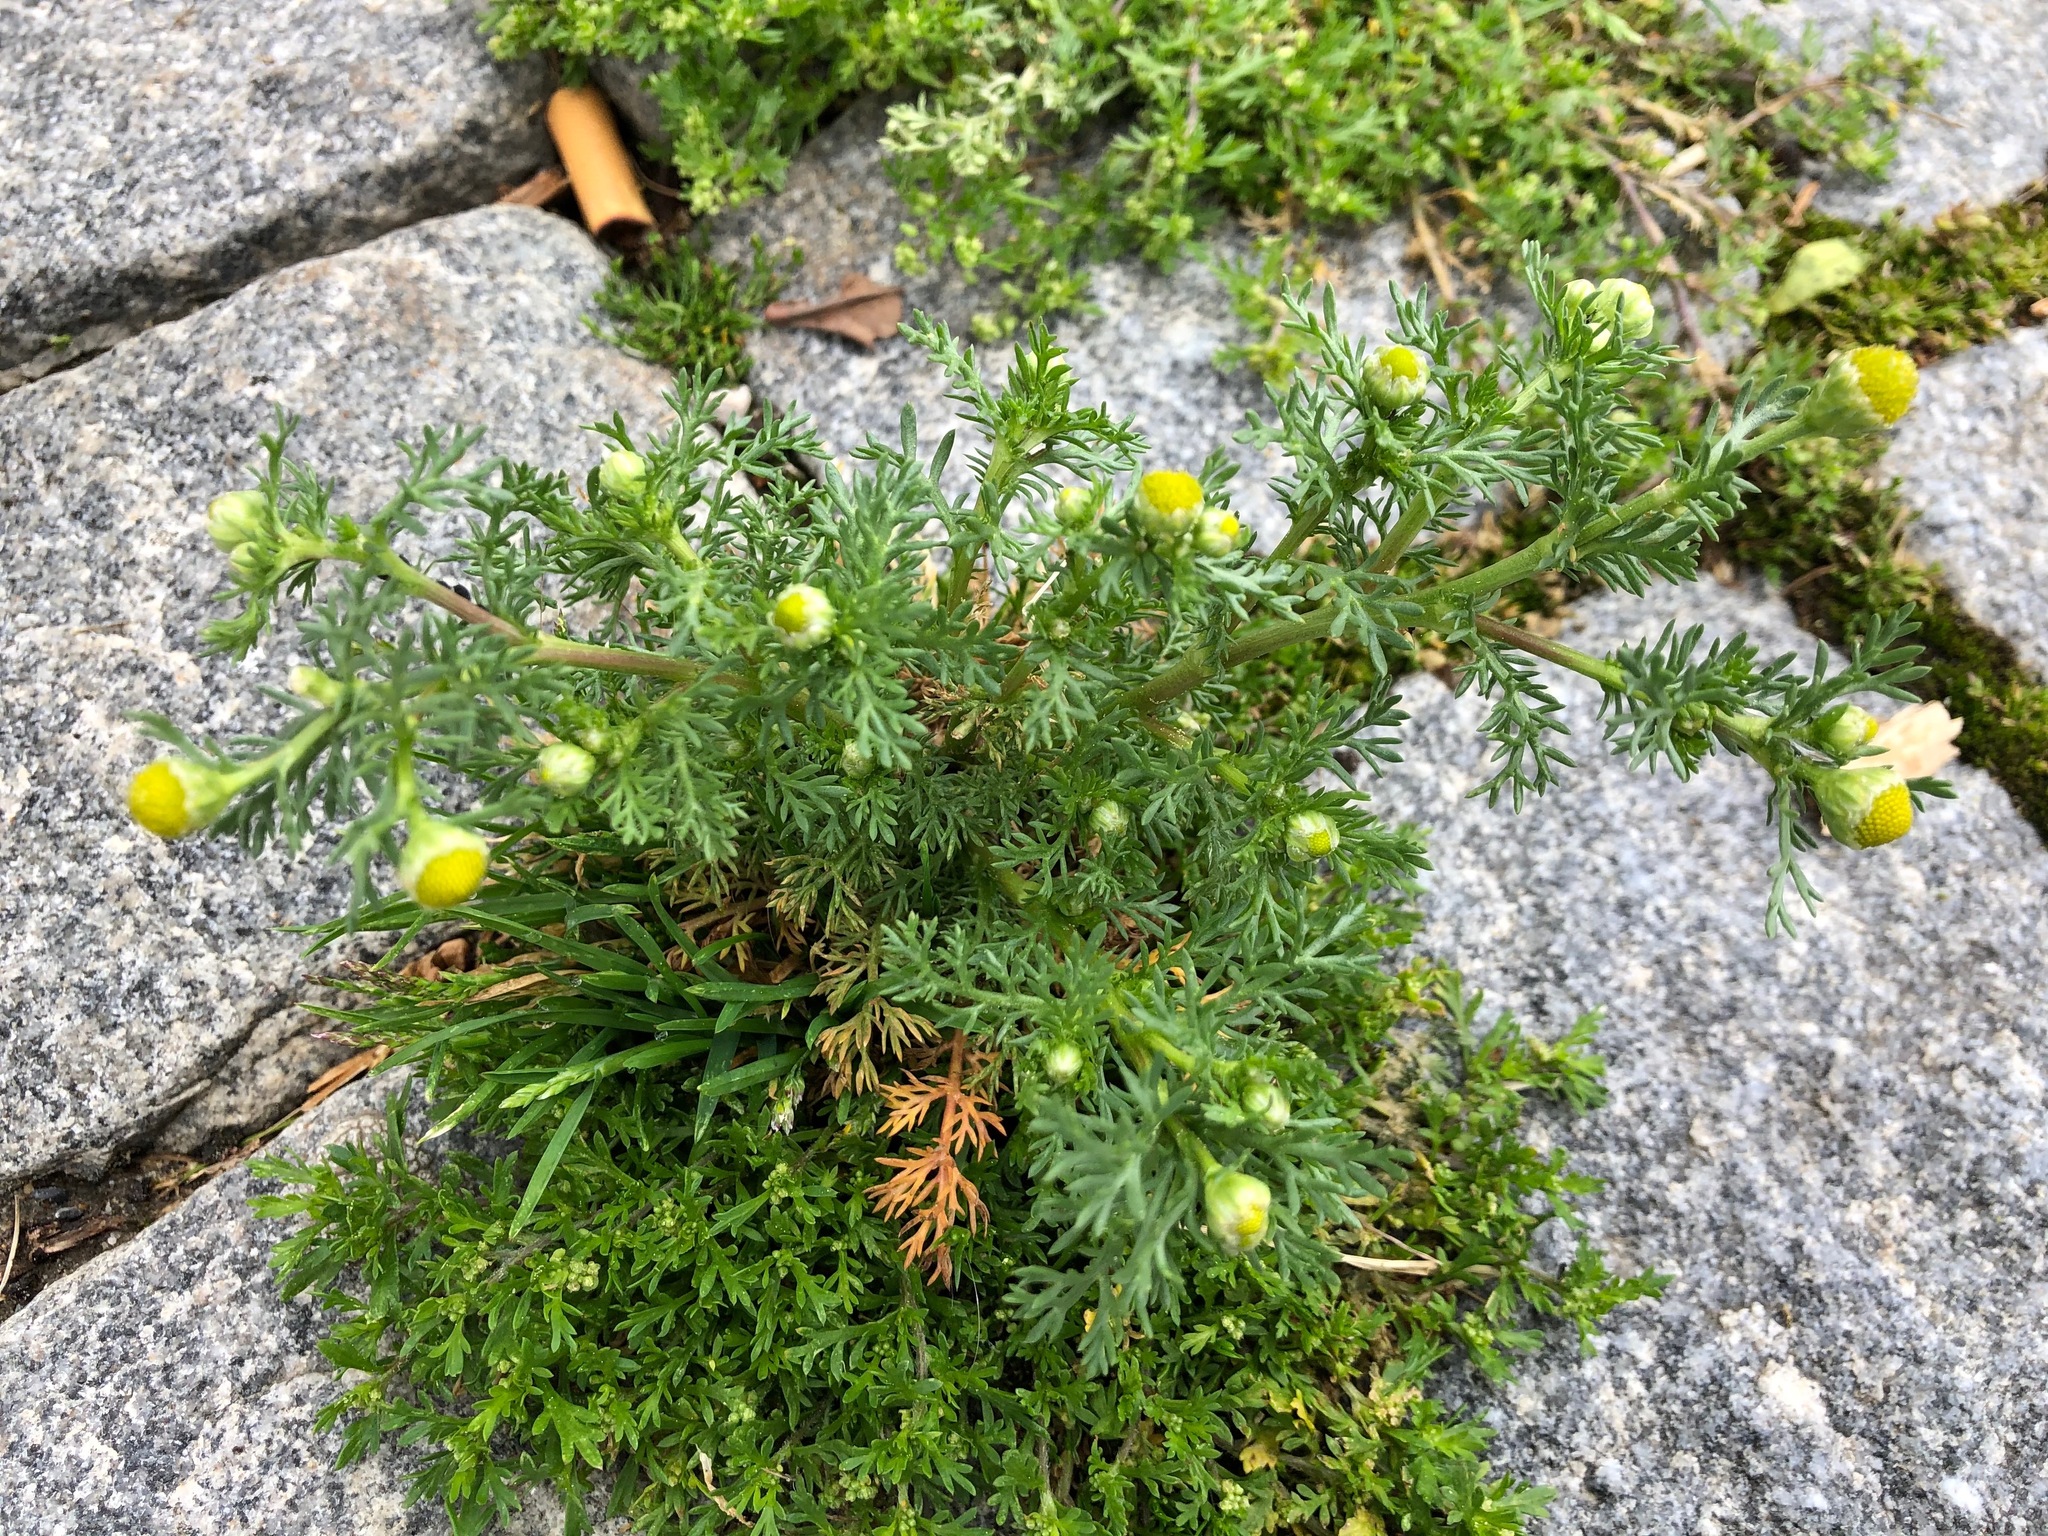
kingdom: Plantae
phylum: Tracheophyta
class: Magnoliopsida
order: Asterales
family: Asteraceae
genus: Matricaria
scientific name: Matricaria discoidea
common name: Disc mayweed
